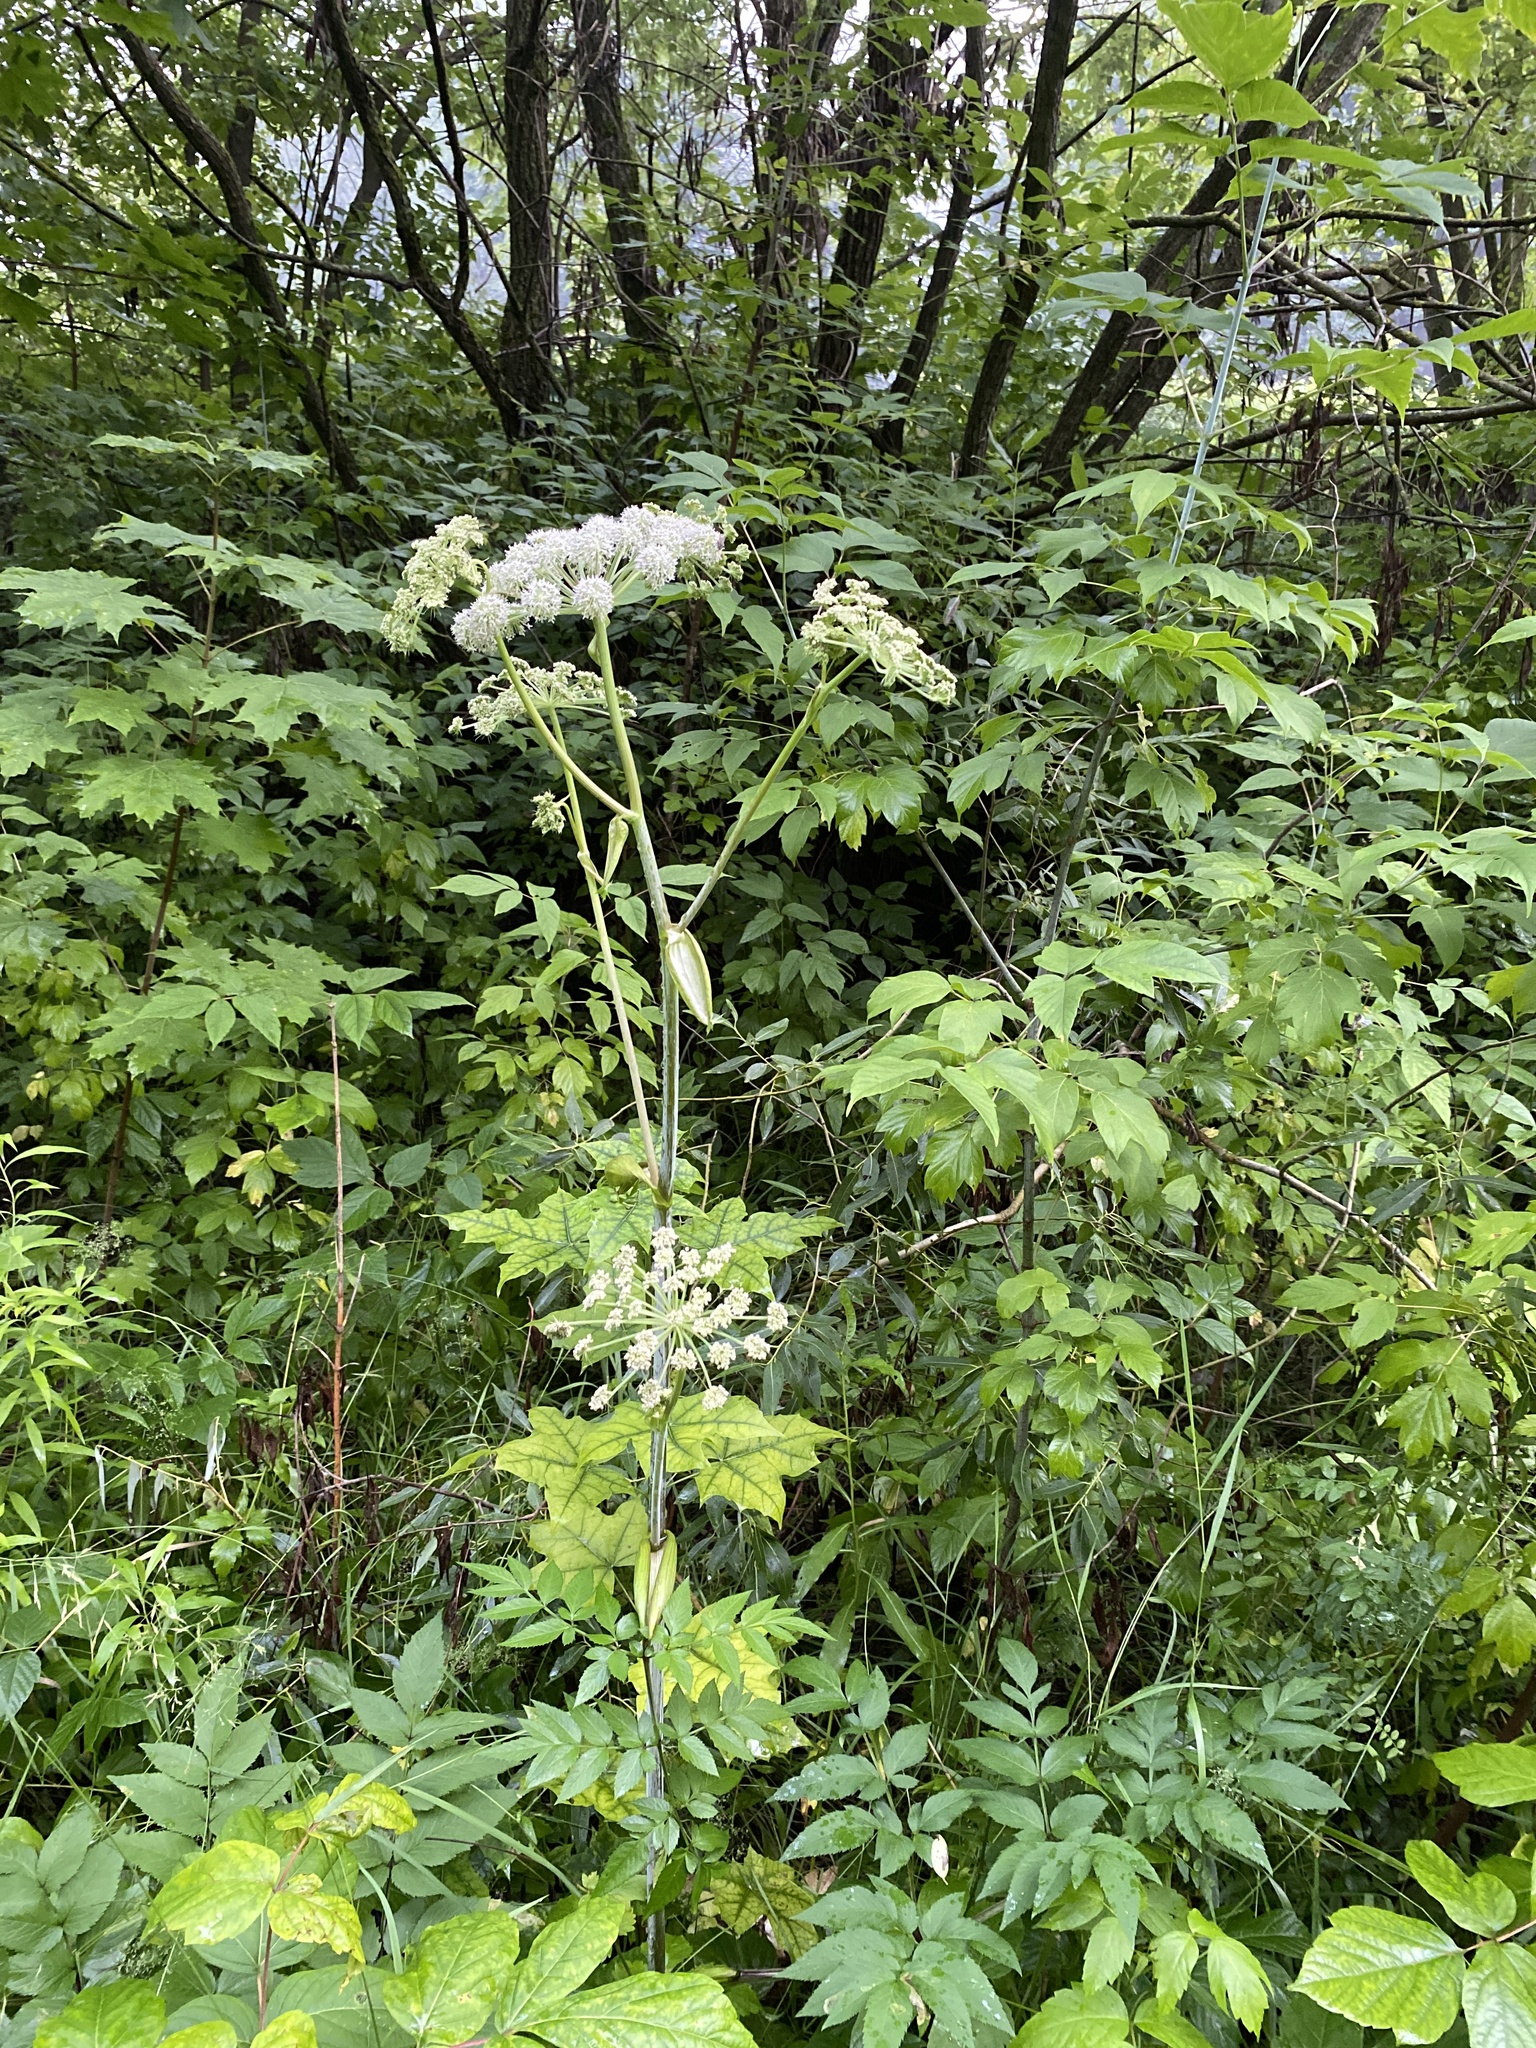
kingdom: Plantae
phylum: Tracheophyta
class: Magnoliopsida
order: Apiales
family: Apiaceae
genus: Angelica
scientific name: Angelica sylvestris
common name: Wild angelica
